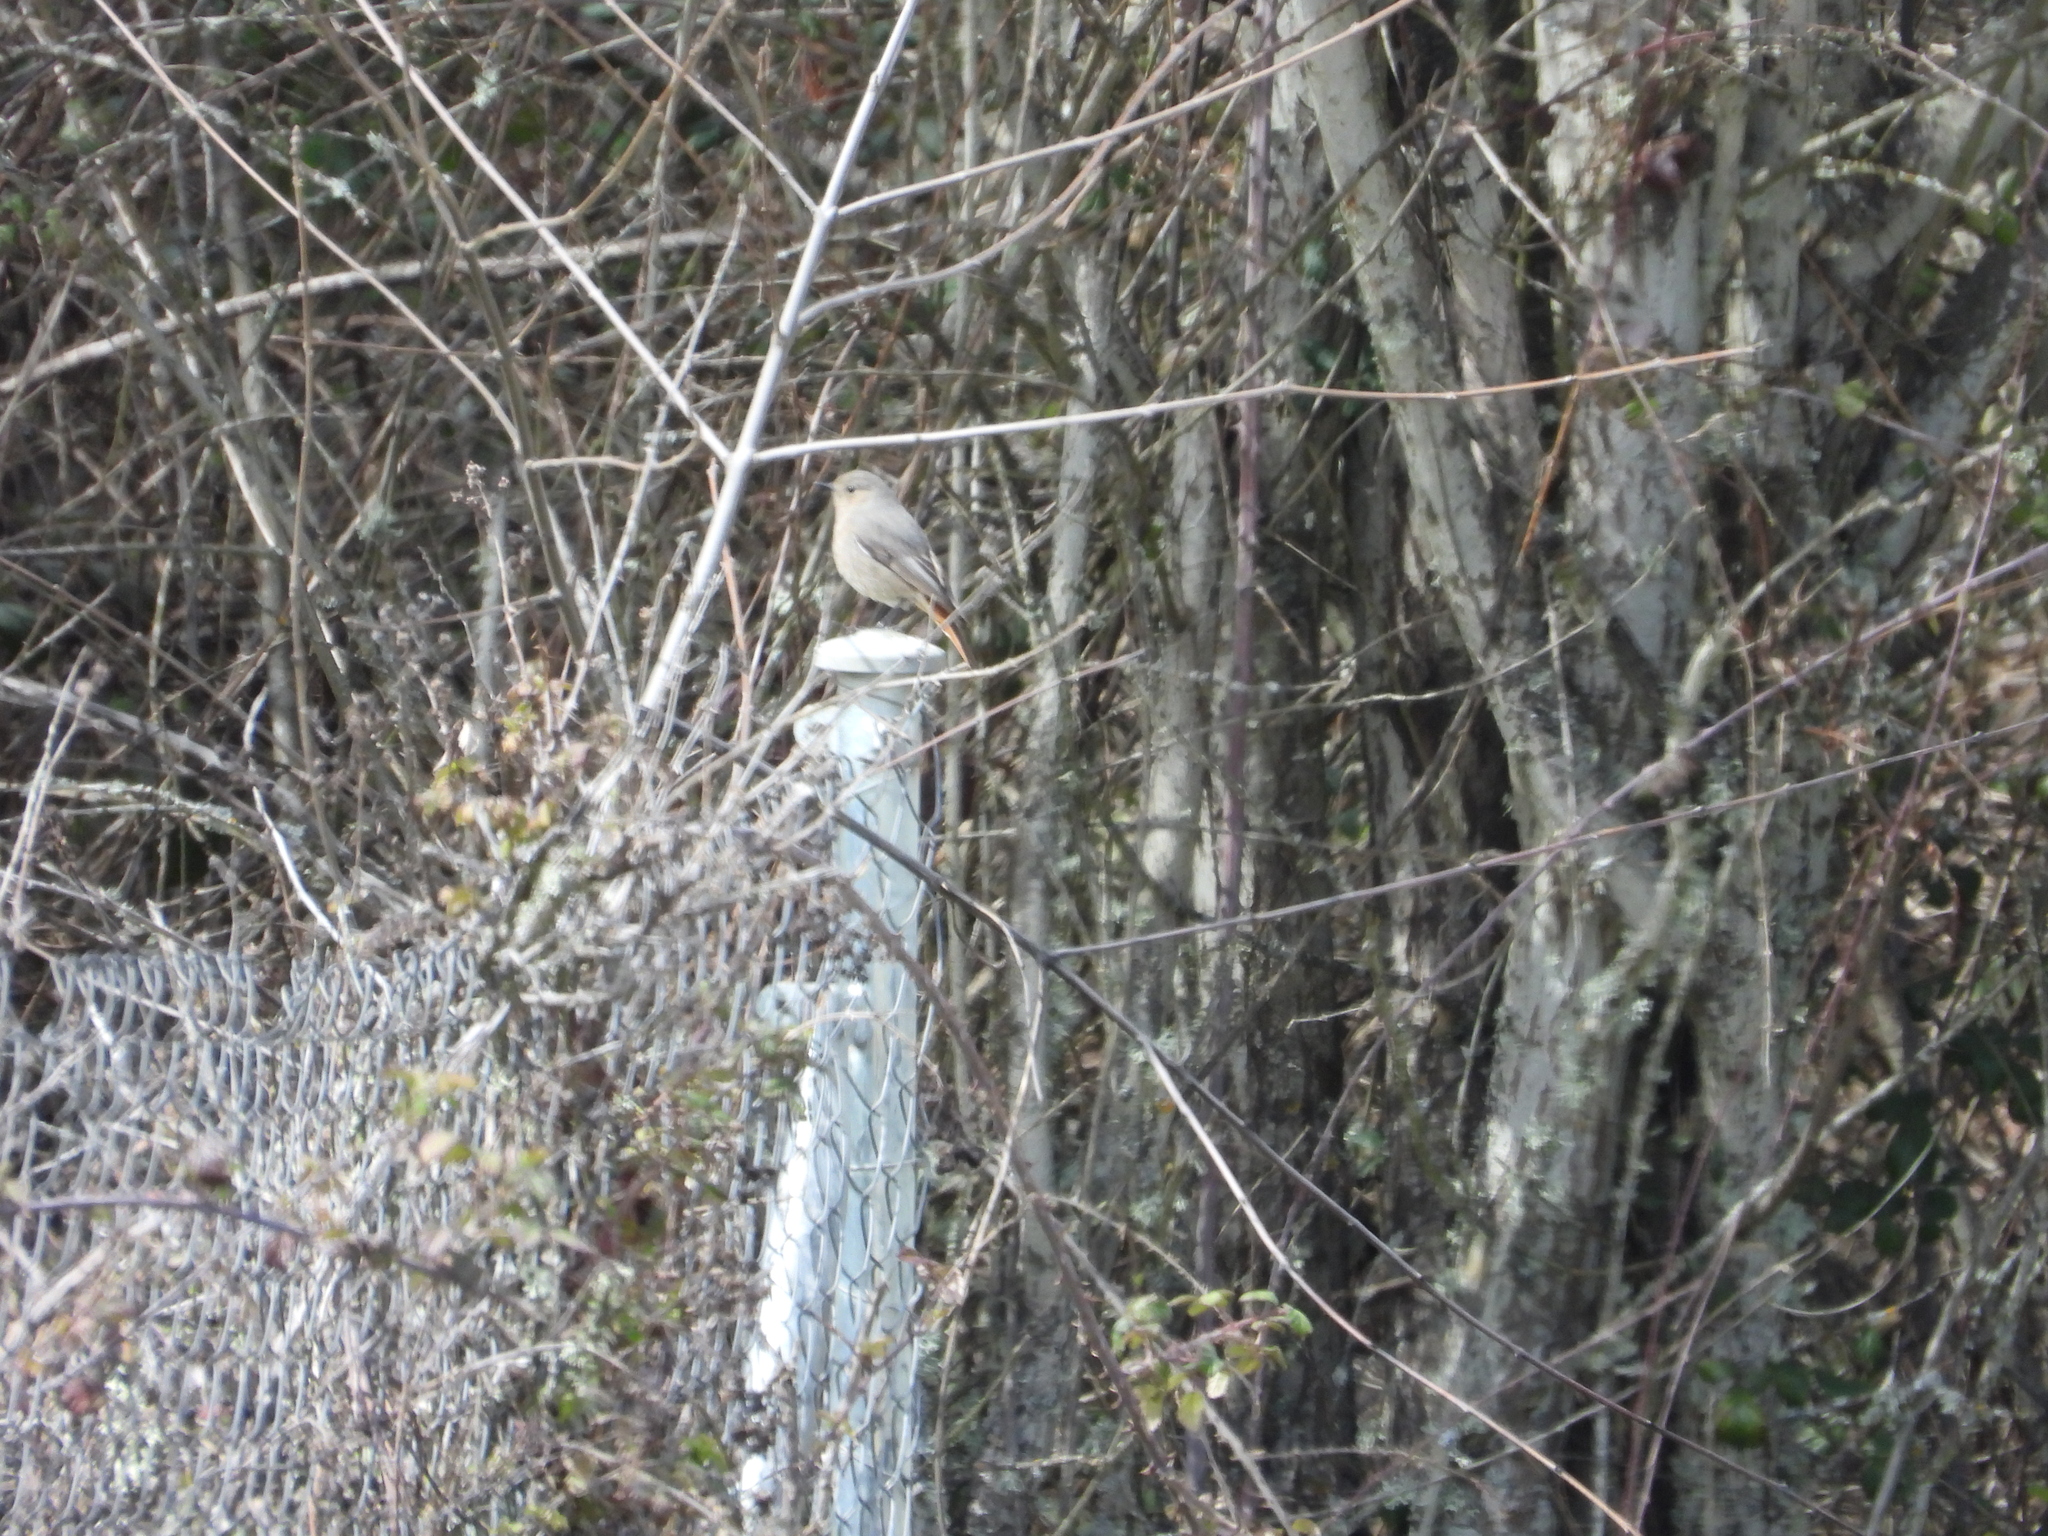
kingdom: Animalia
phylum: Chordata
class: Aves
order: Passeriformes
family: Muscicapidae
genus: Phoenicurus
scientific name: Phoenicurus ochruros
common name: Black redstart
